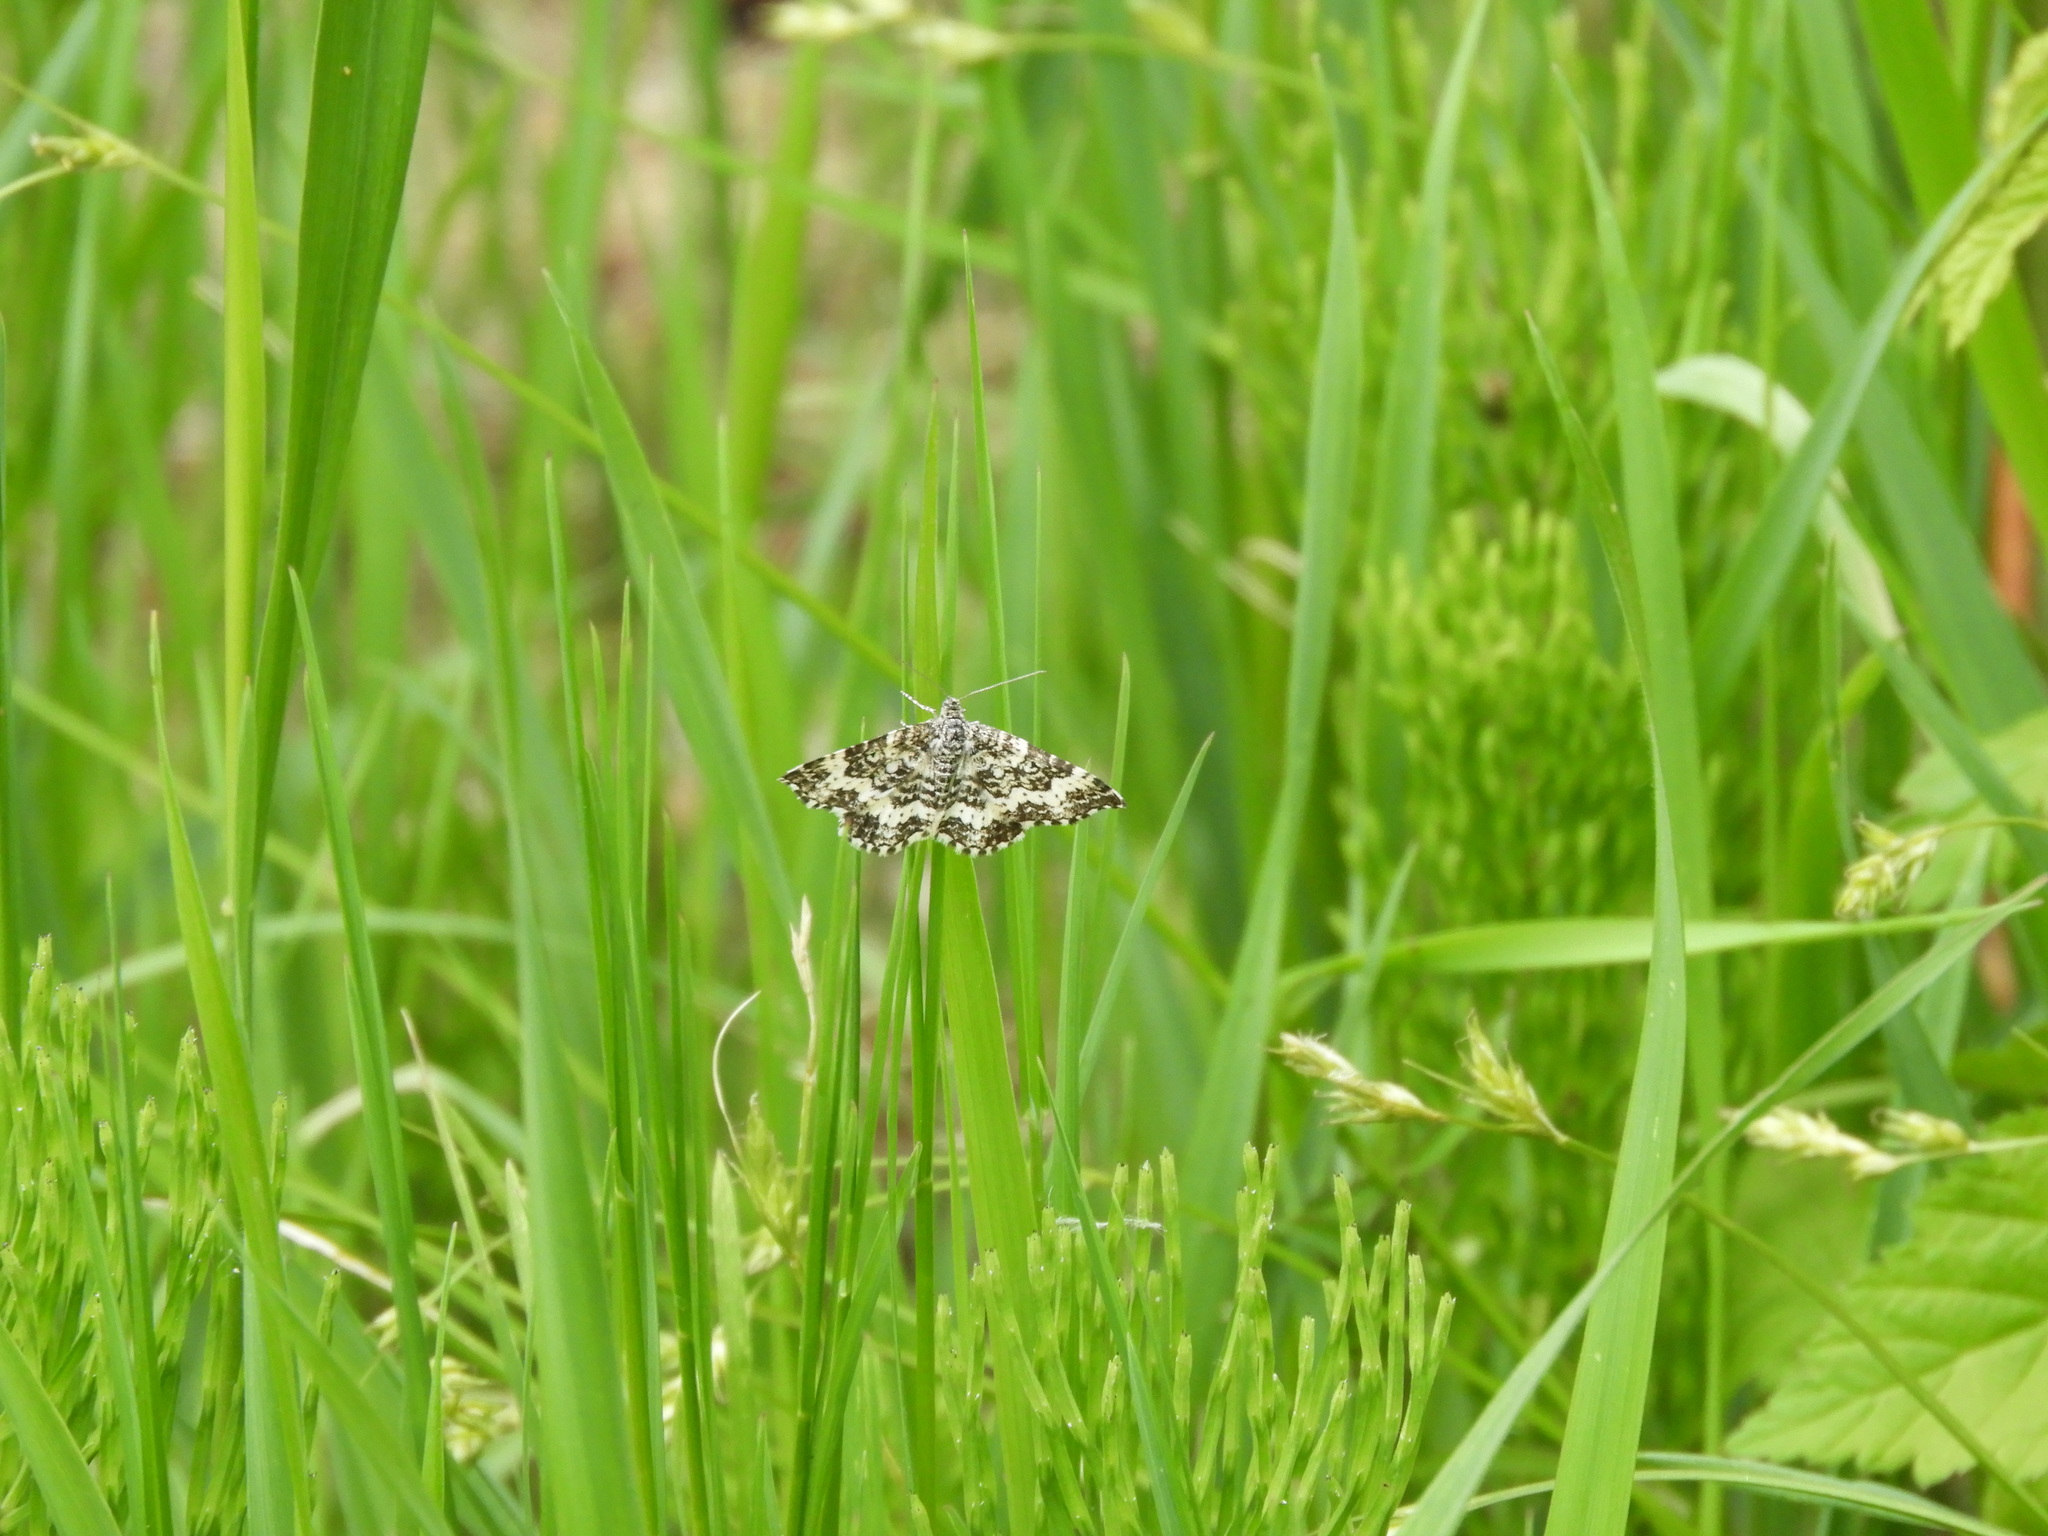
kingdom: Animalia
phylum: Arthropoda
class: Insecta
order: Lepidoptera
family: Geometridae
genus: Epirrhoe
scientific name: Epirrhoe sperryi
